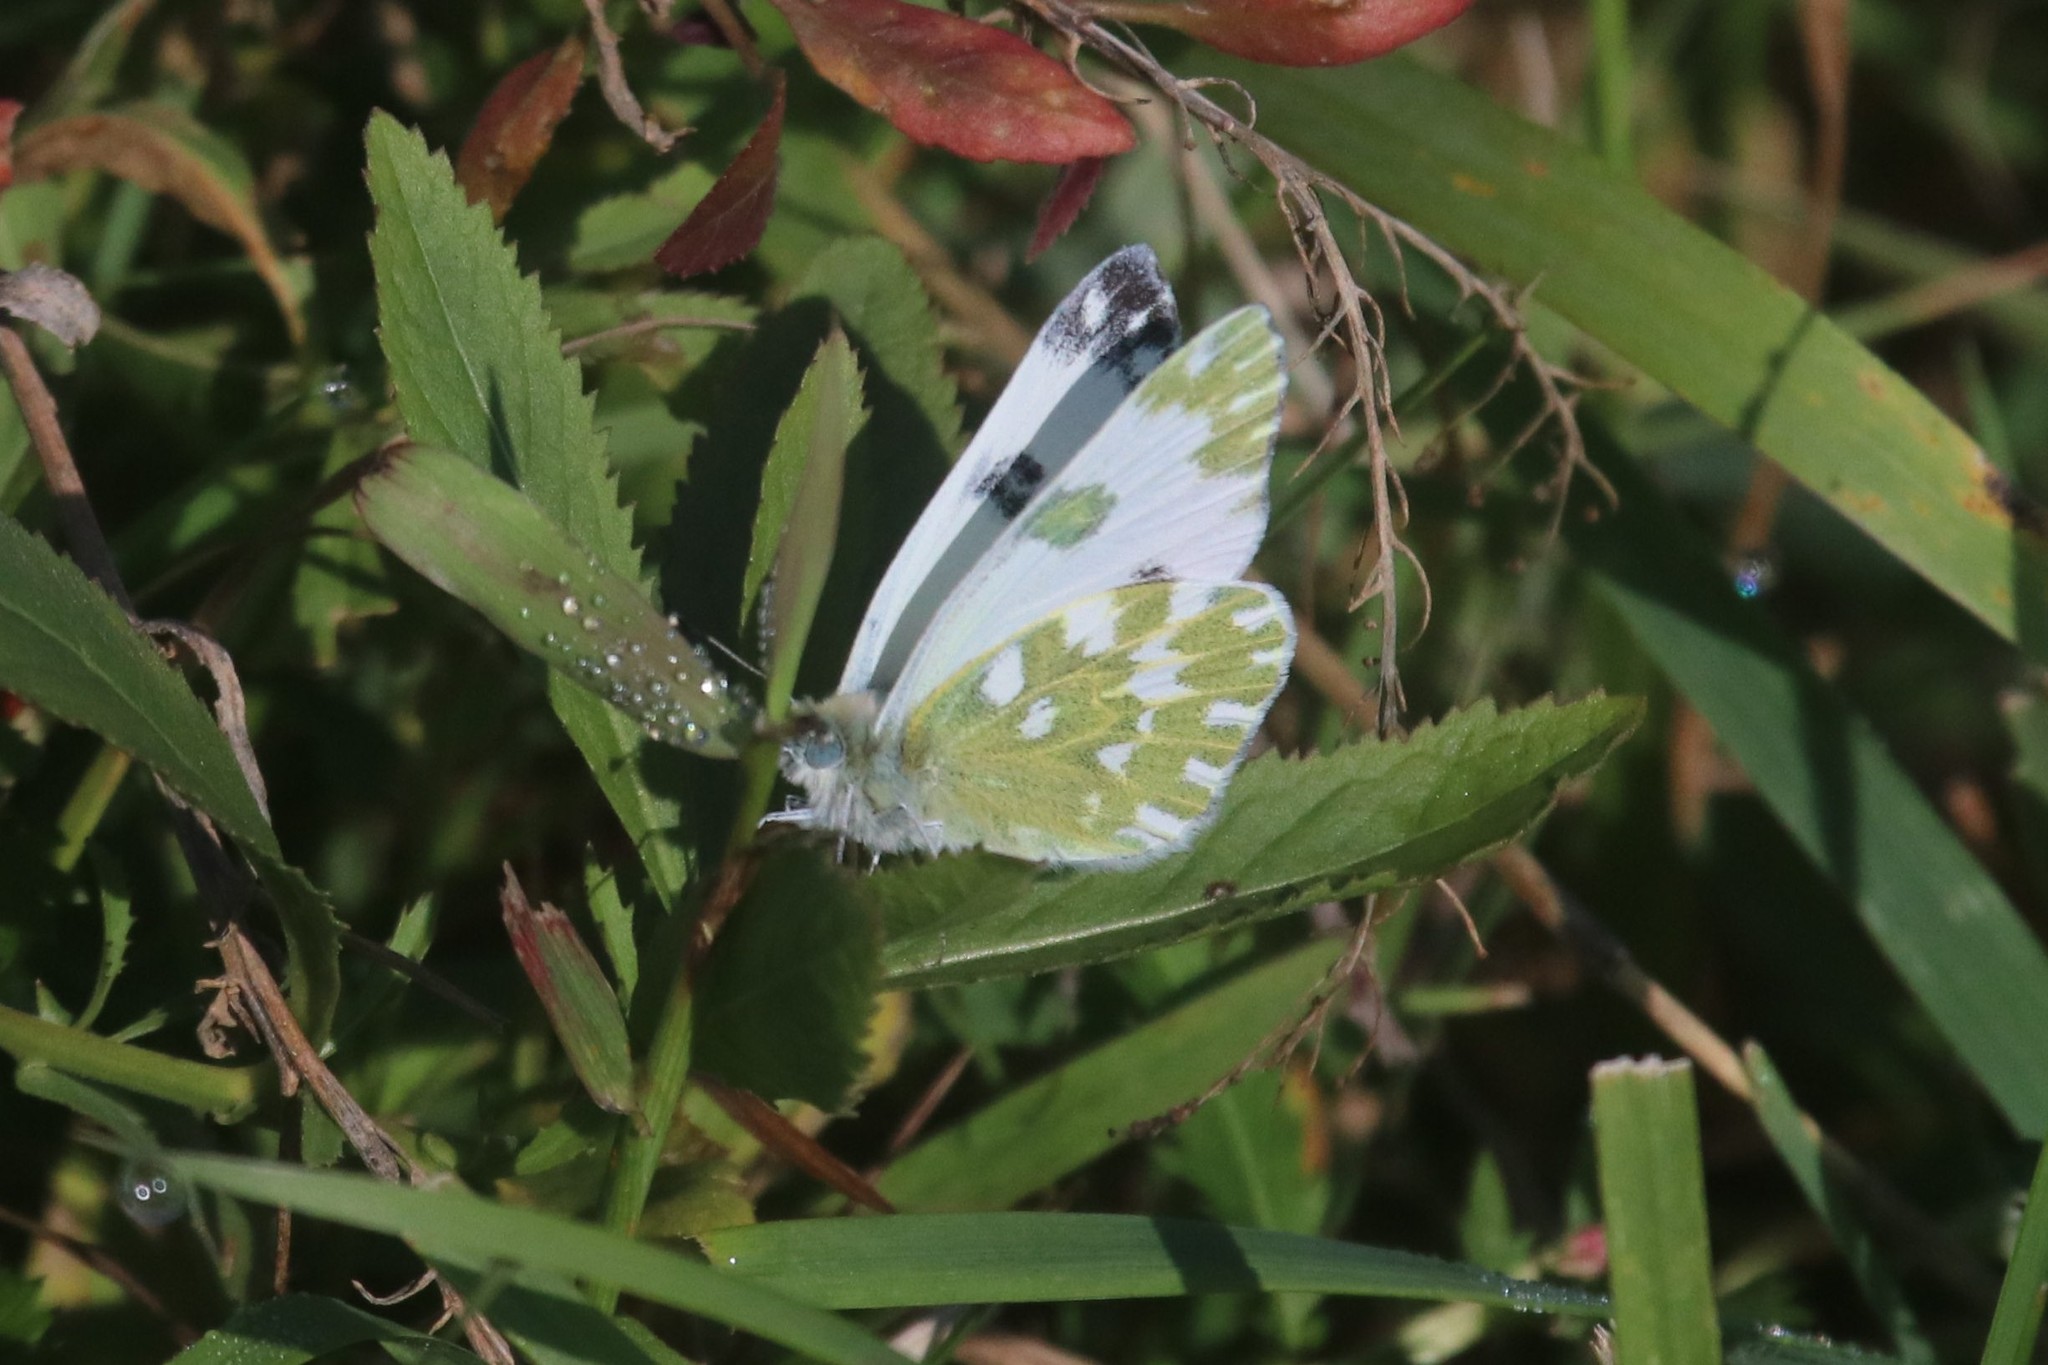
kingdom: Animalia
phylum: Arthropoda
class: Insecta
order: Lepidoptera
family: Pieridae
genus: Pontia
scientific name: Pontia edusa
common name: Eastern bath white
